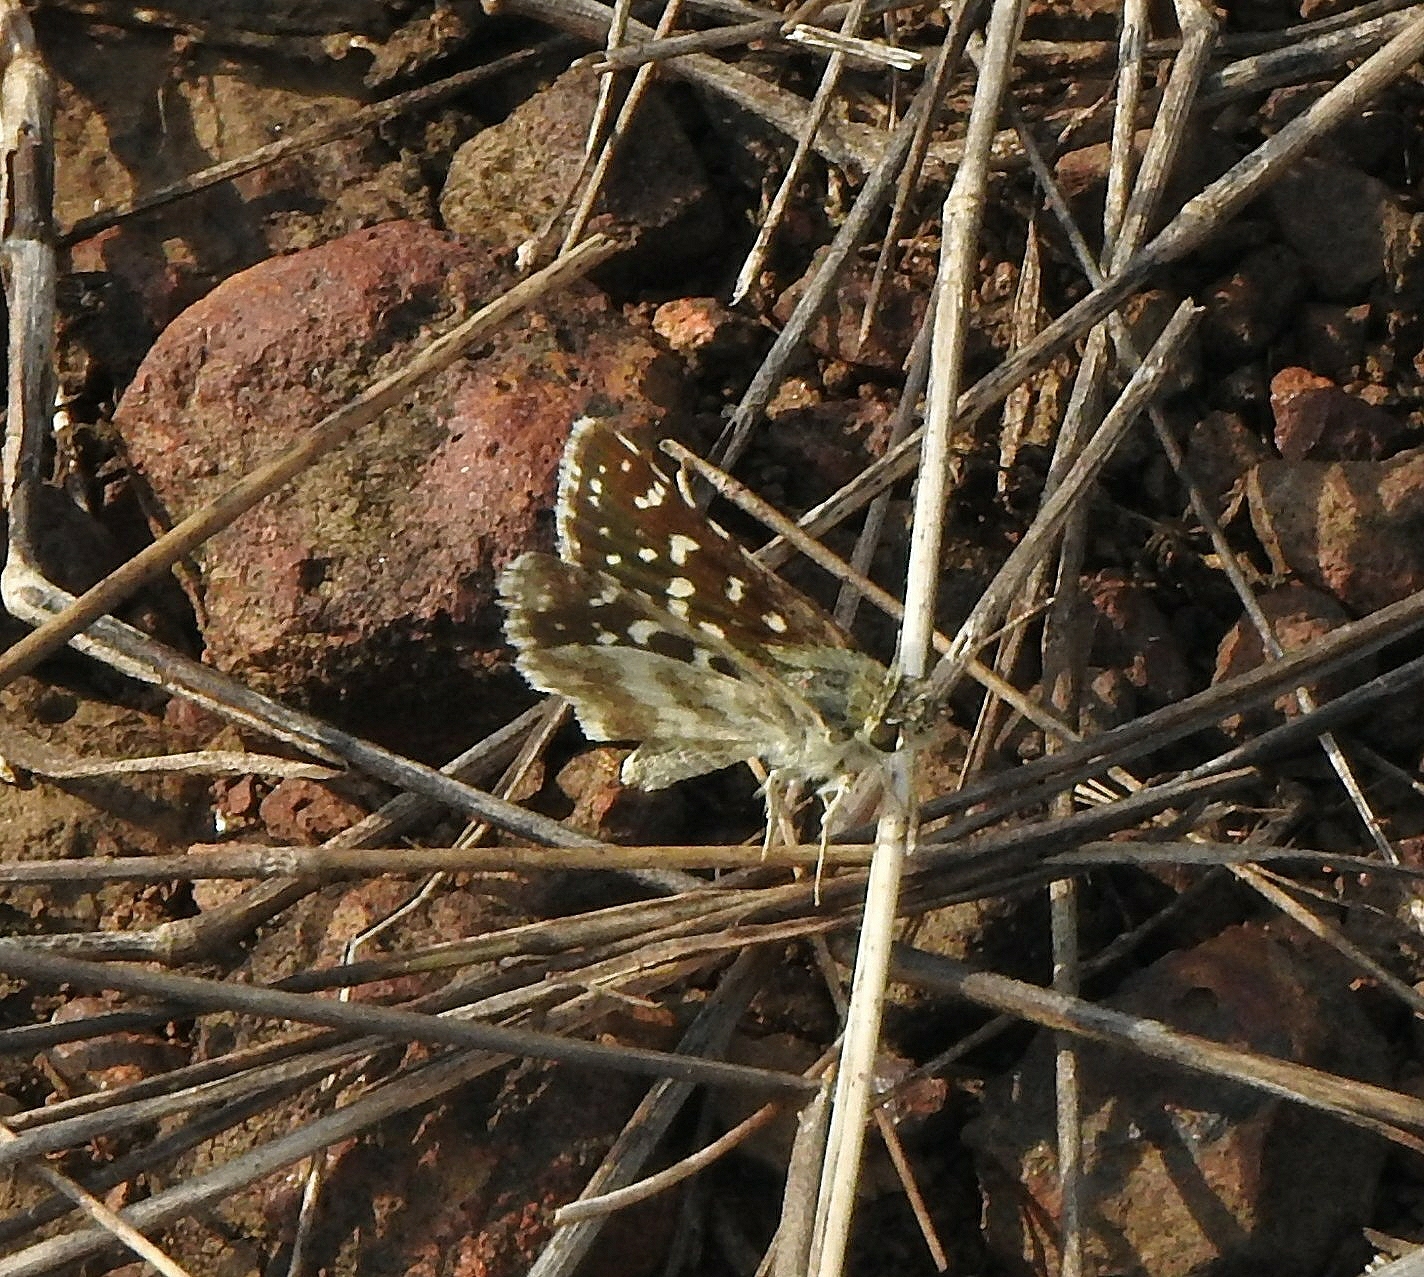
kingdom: Animalia
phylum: Arthropoda
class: Insecta
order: Lepidoptera
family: Hesperiidae
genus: Spialia
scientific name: Spialia galba
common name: Indian skipper
